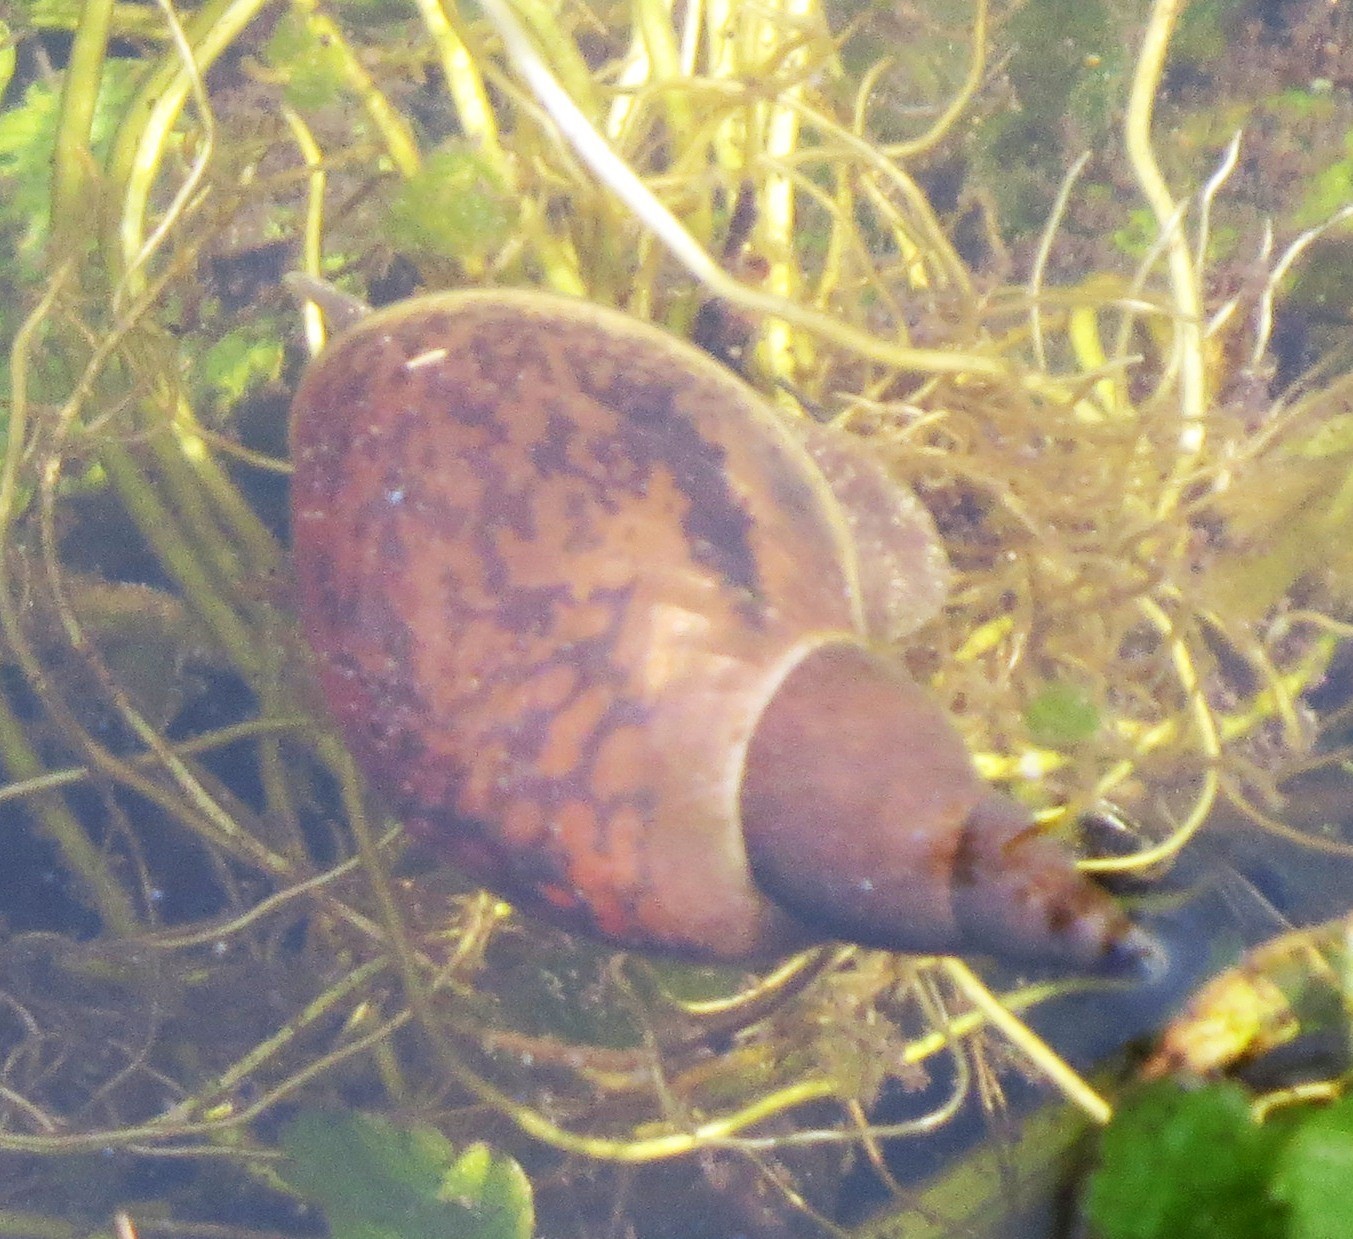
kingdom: Animalia
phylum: Mollusca
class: Gastropoda
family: Lymnaeidae
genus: Lymnaea
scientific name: Lymnaea stagnalis
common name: Great pond snail
